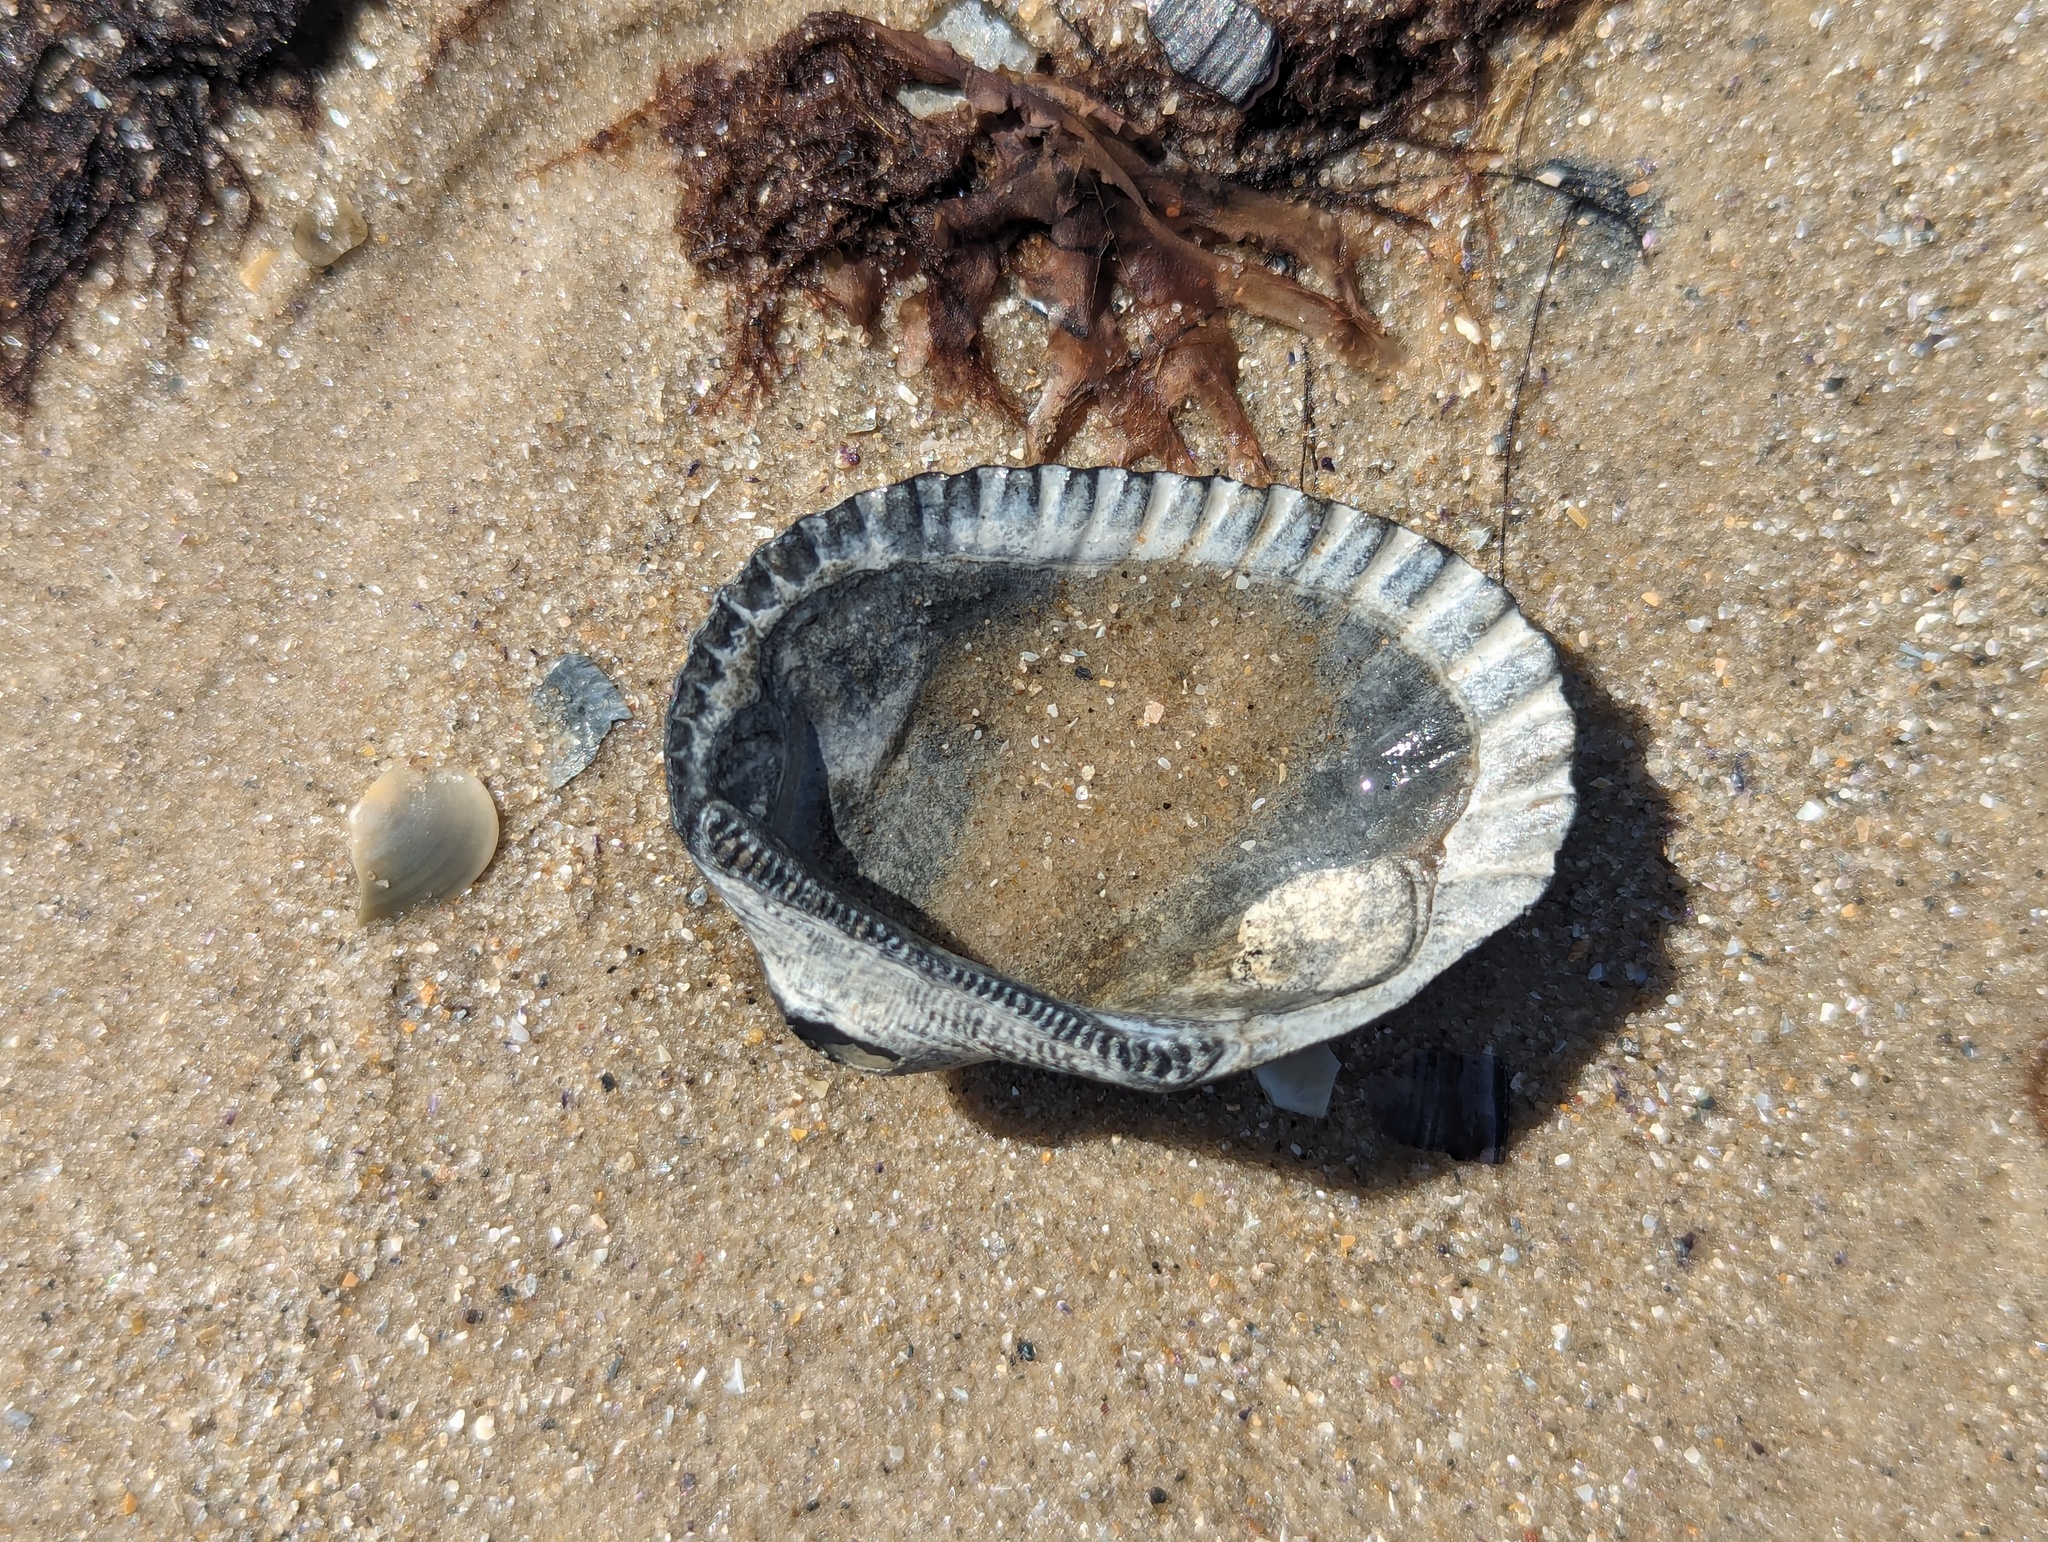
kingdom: Animalia
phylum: Mollusca
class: Bivalvia
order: Arcida
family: Arcidae
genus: Anadara
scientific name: Anadara trapezia
